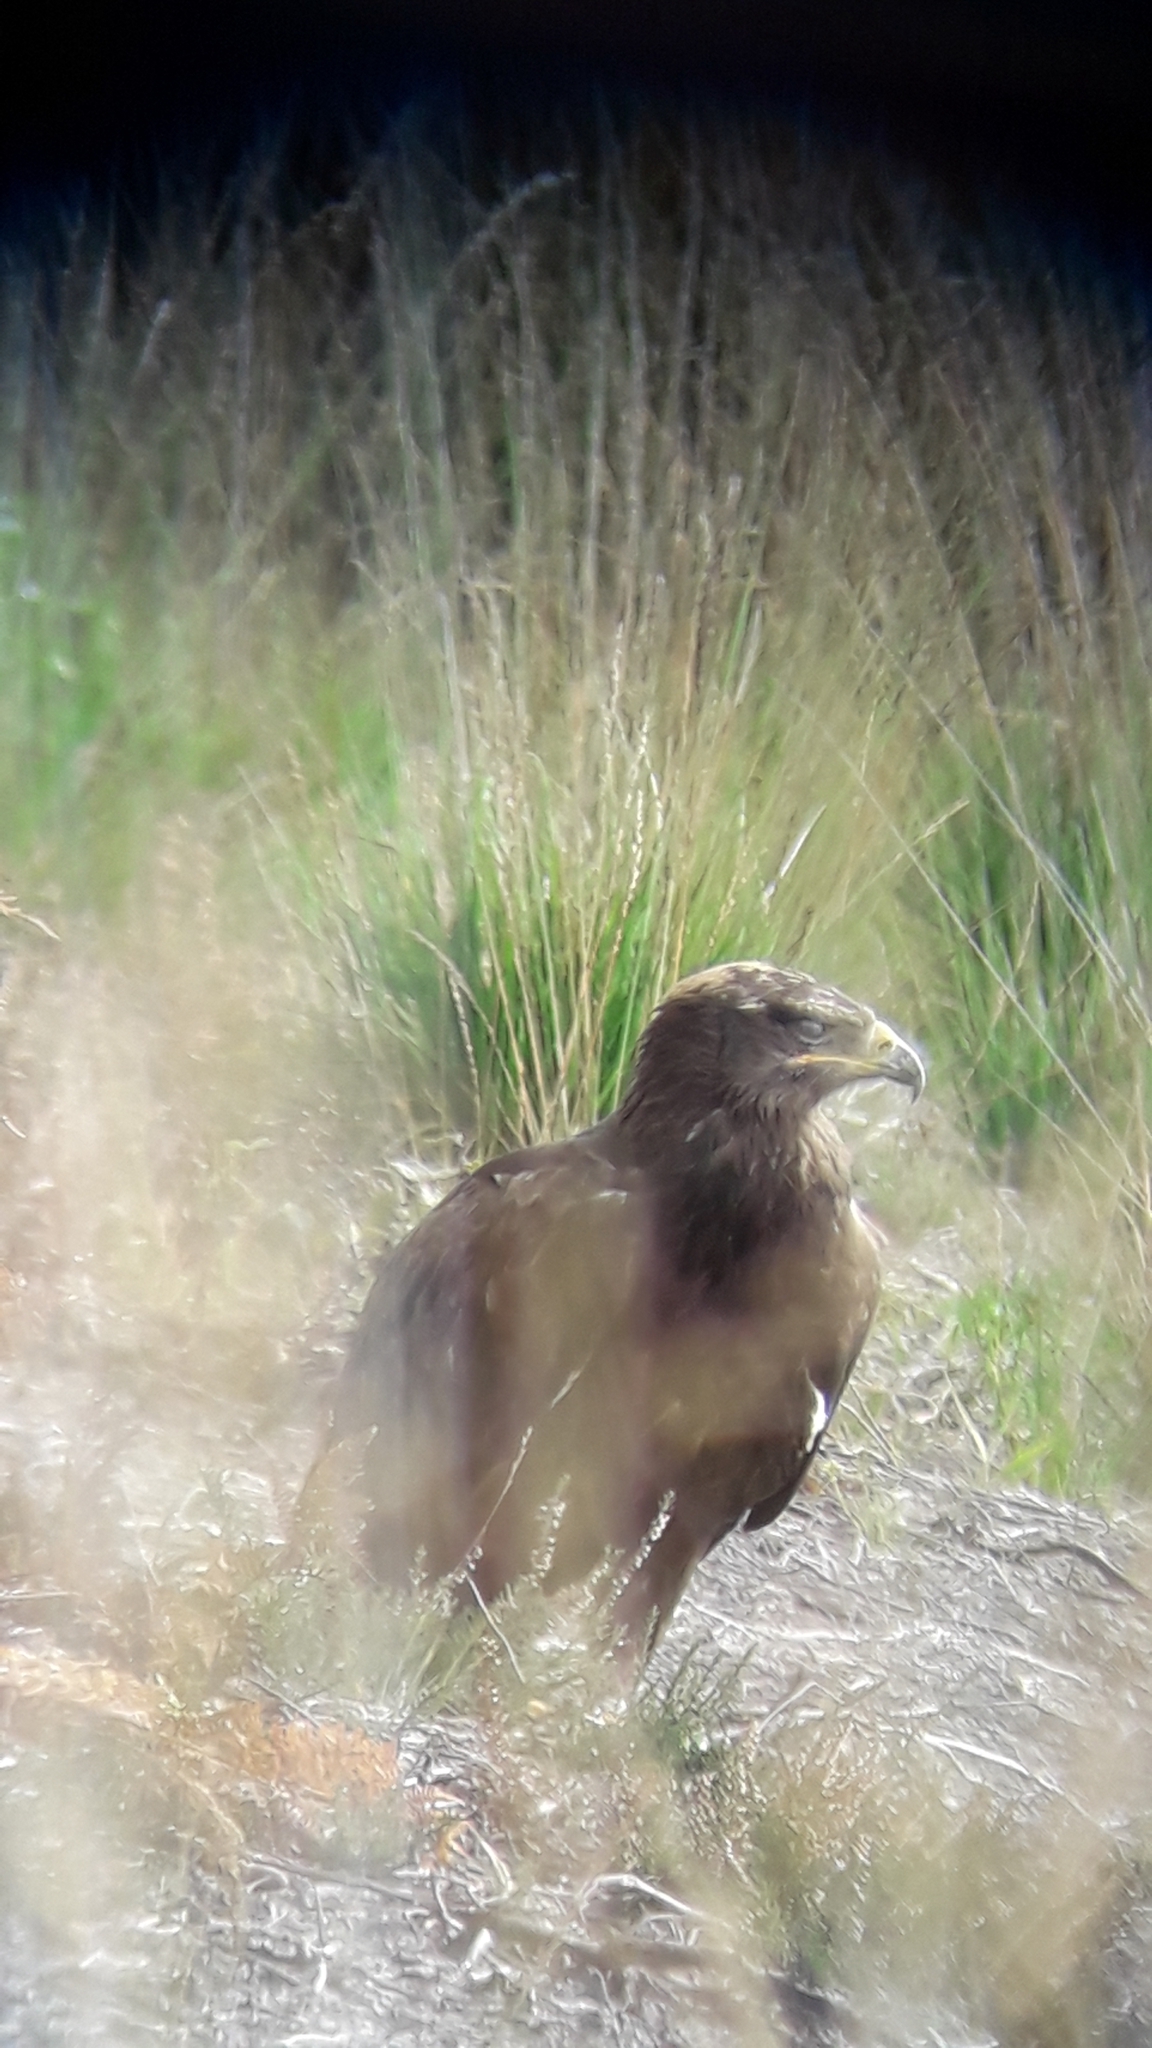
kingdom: Animalia
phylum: Chordata
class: Aves
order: Accipitriformes
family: Accipitridae
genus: Aquila
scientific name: Aquila nipalensis
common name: Steppe eagle
